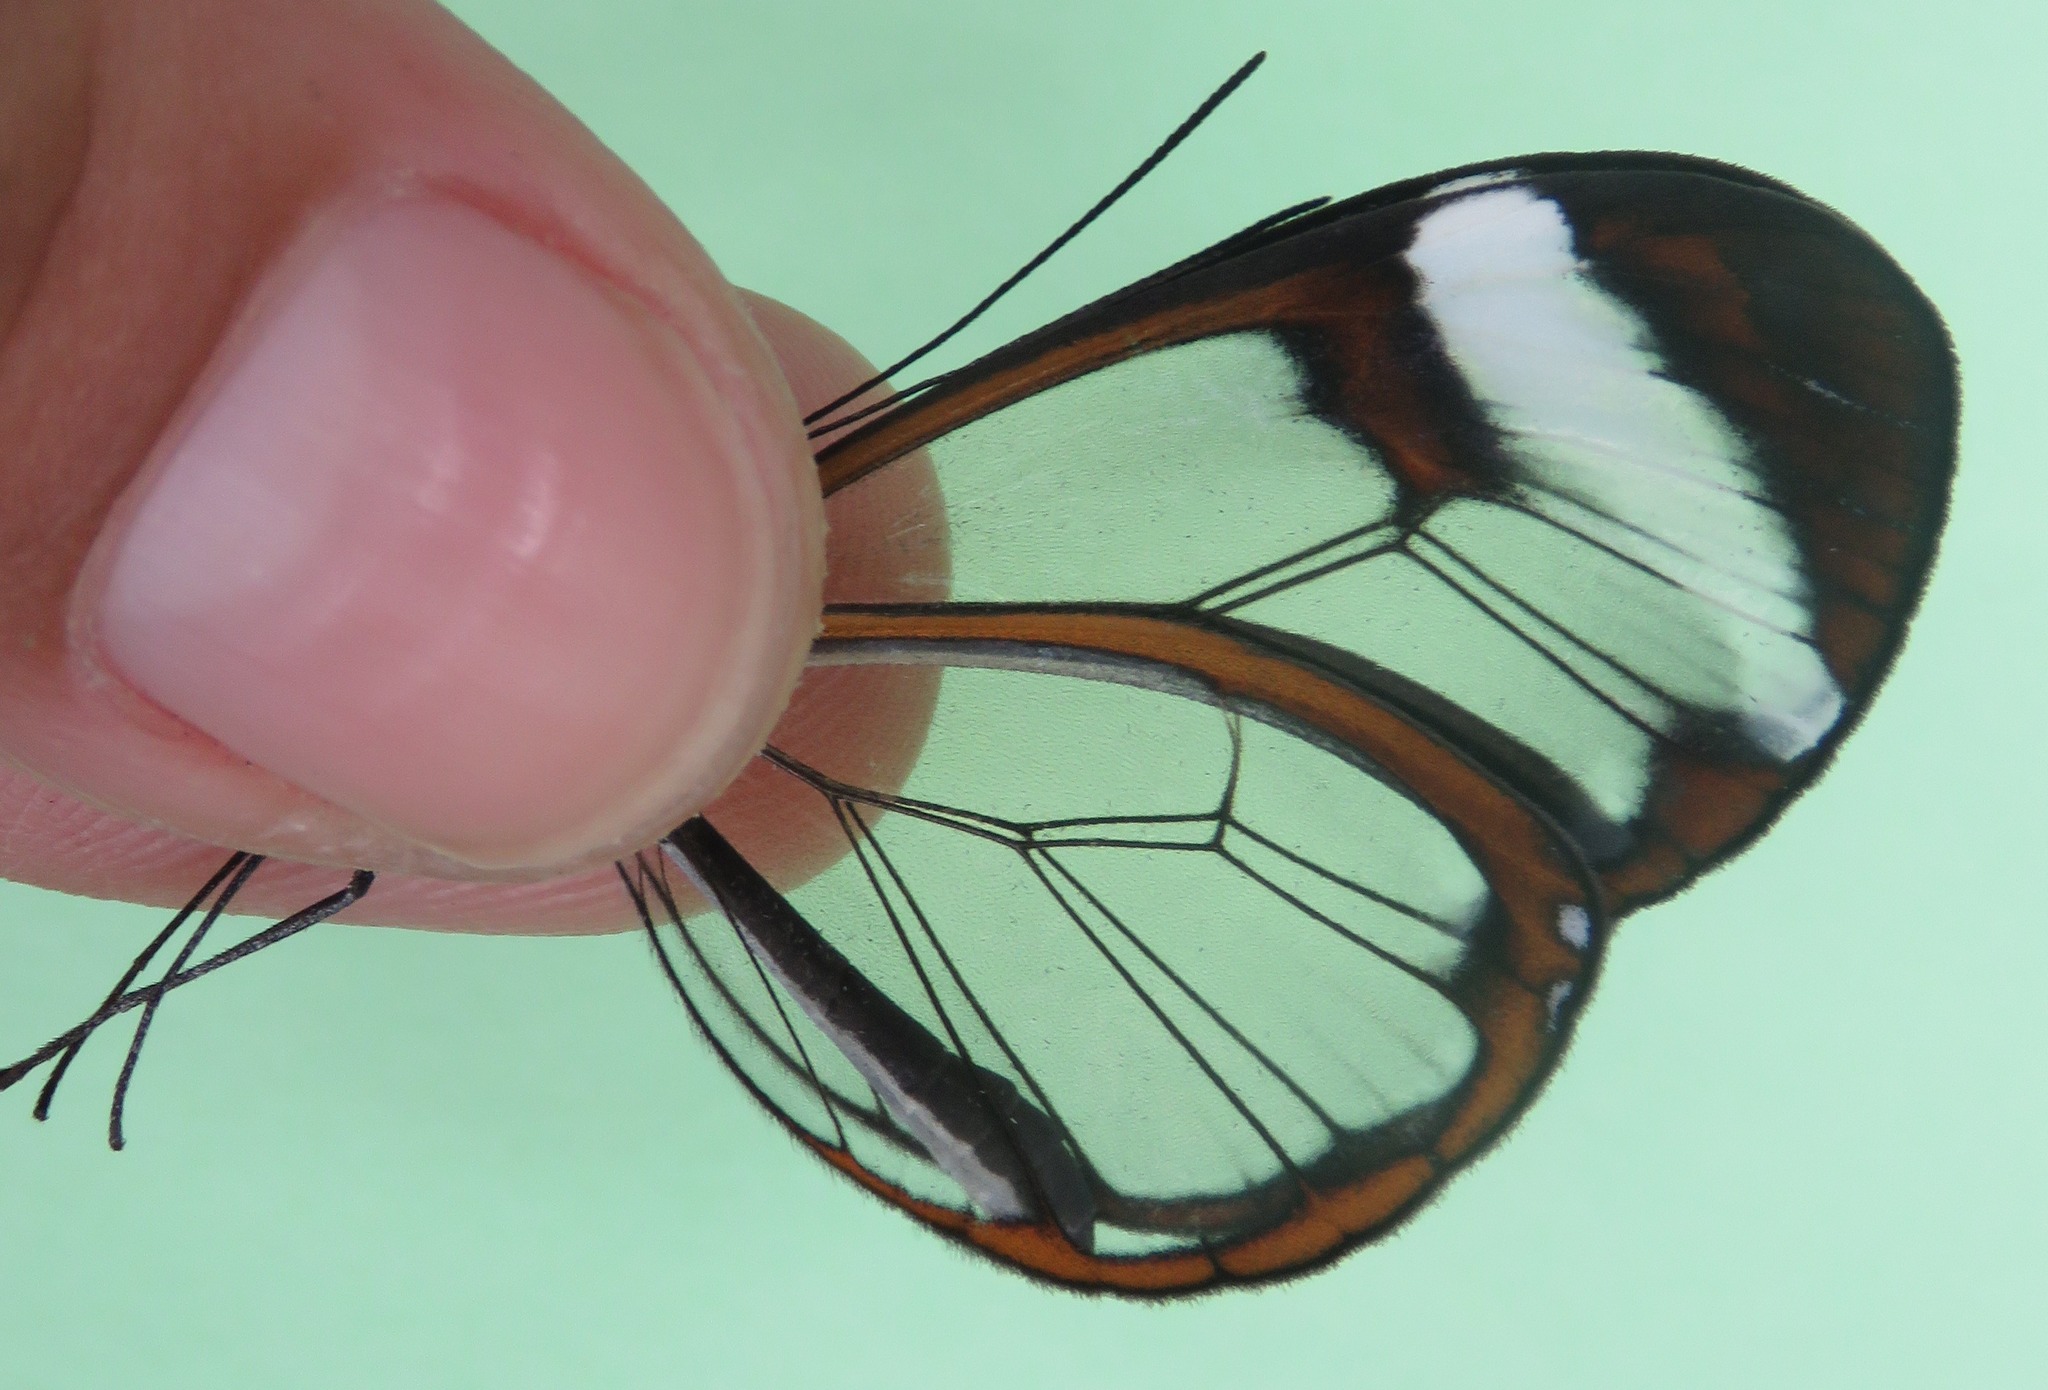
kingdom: Animalia
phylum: Arthropoda
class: Insecta
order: Lepidoptera
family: Nymphalidae
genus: Greta
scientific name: Greta morgane
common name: Thick-tipped greta
